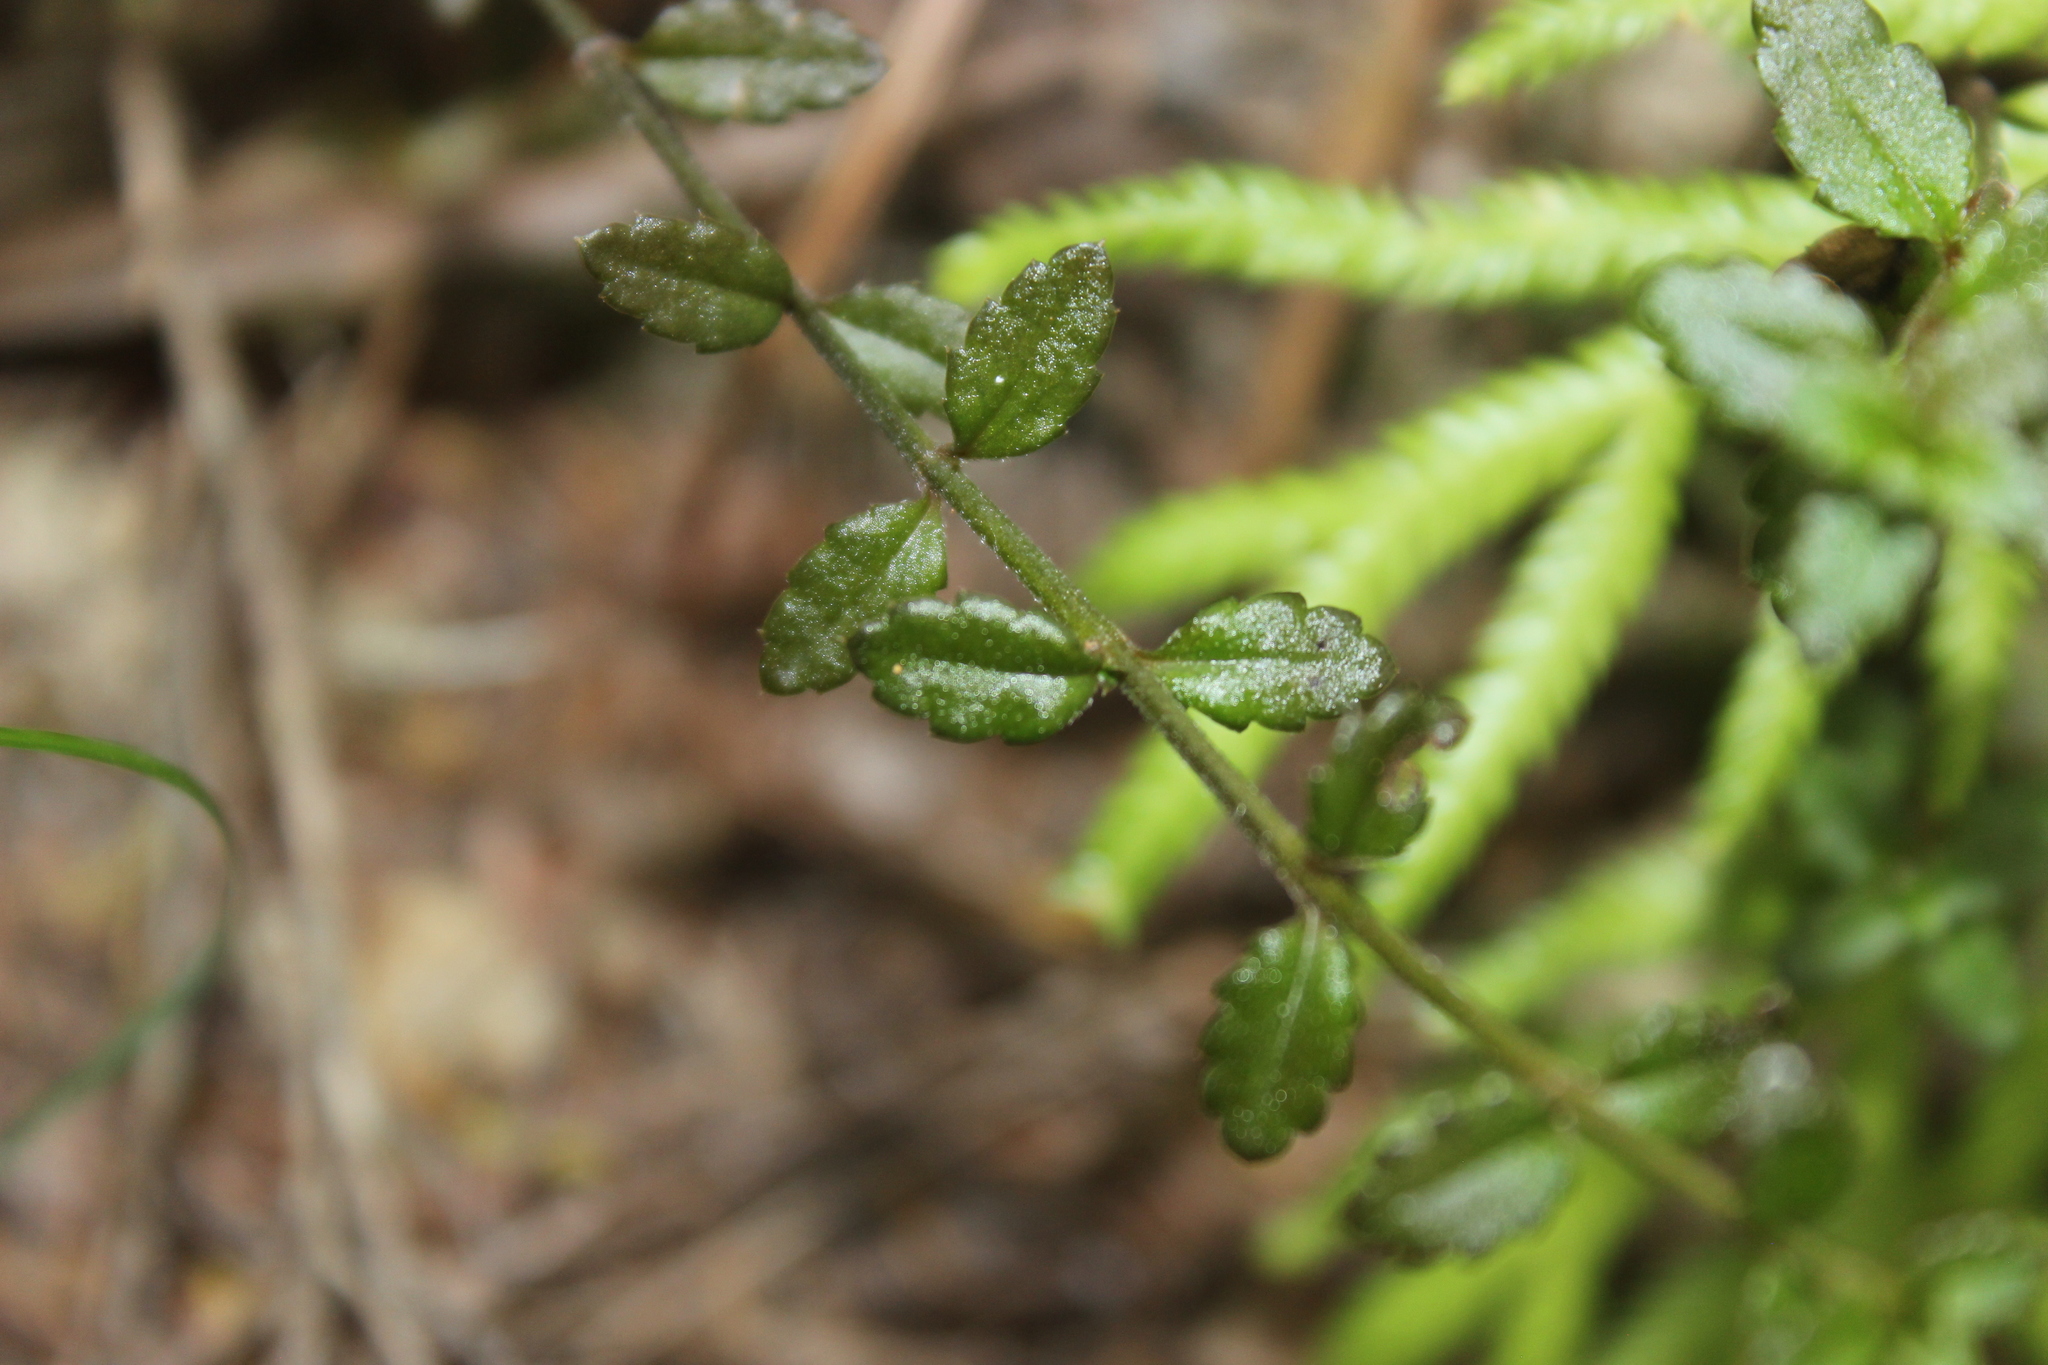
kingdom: Plantae
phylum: Tracheophyta
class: Magnoliopsida
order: Saxifragales
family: Haloragaceae
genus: Gonocarpus
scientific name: Gonocarpus incanus
